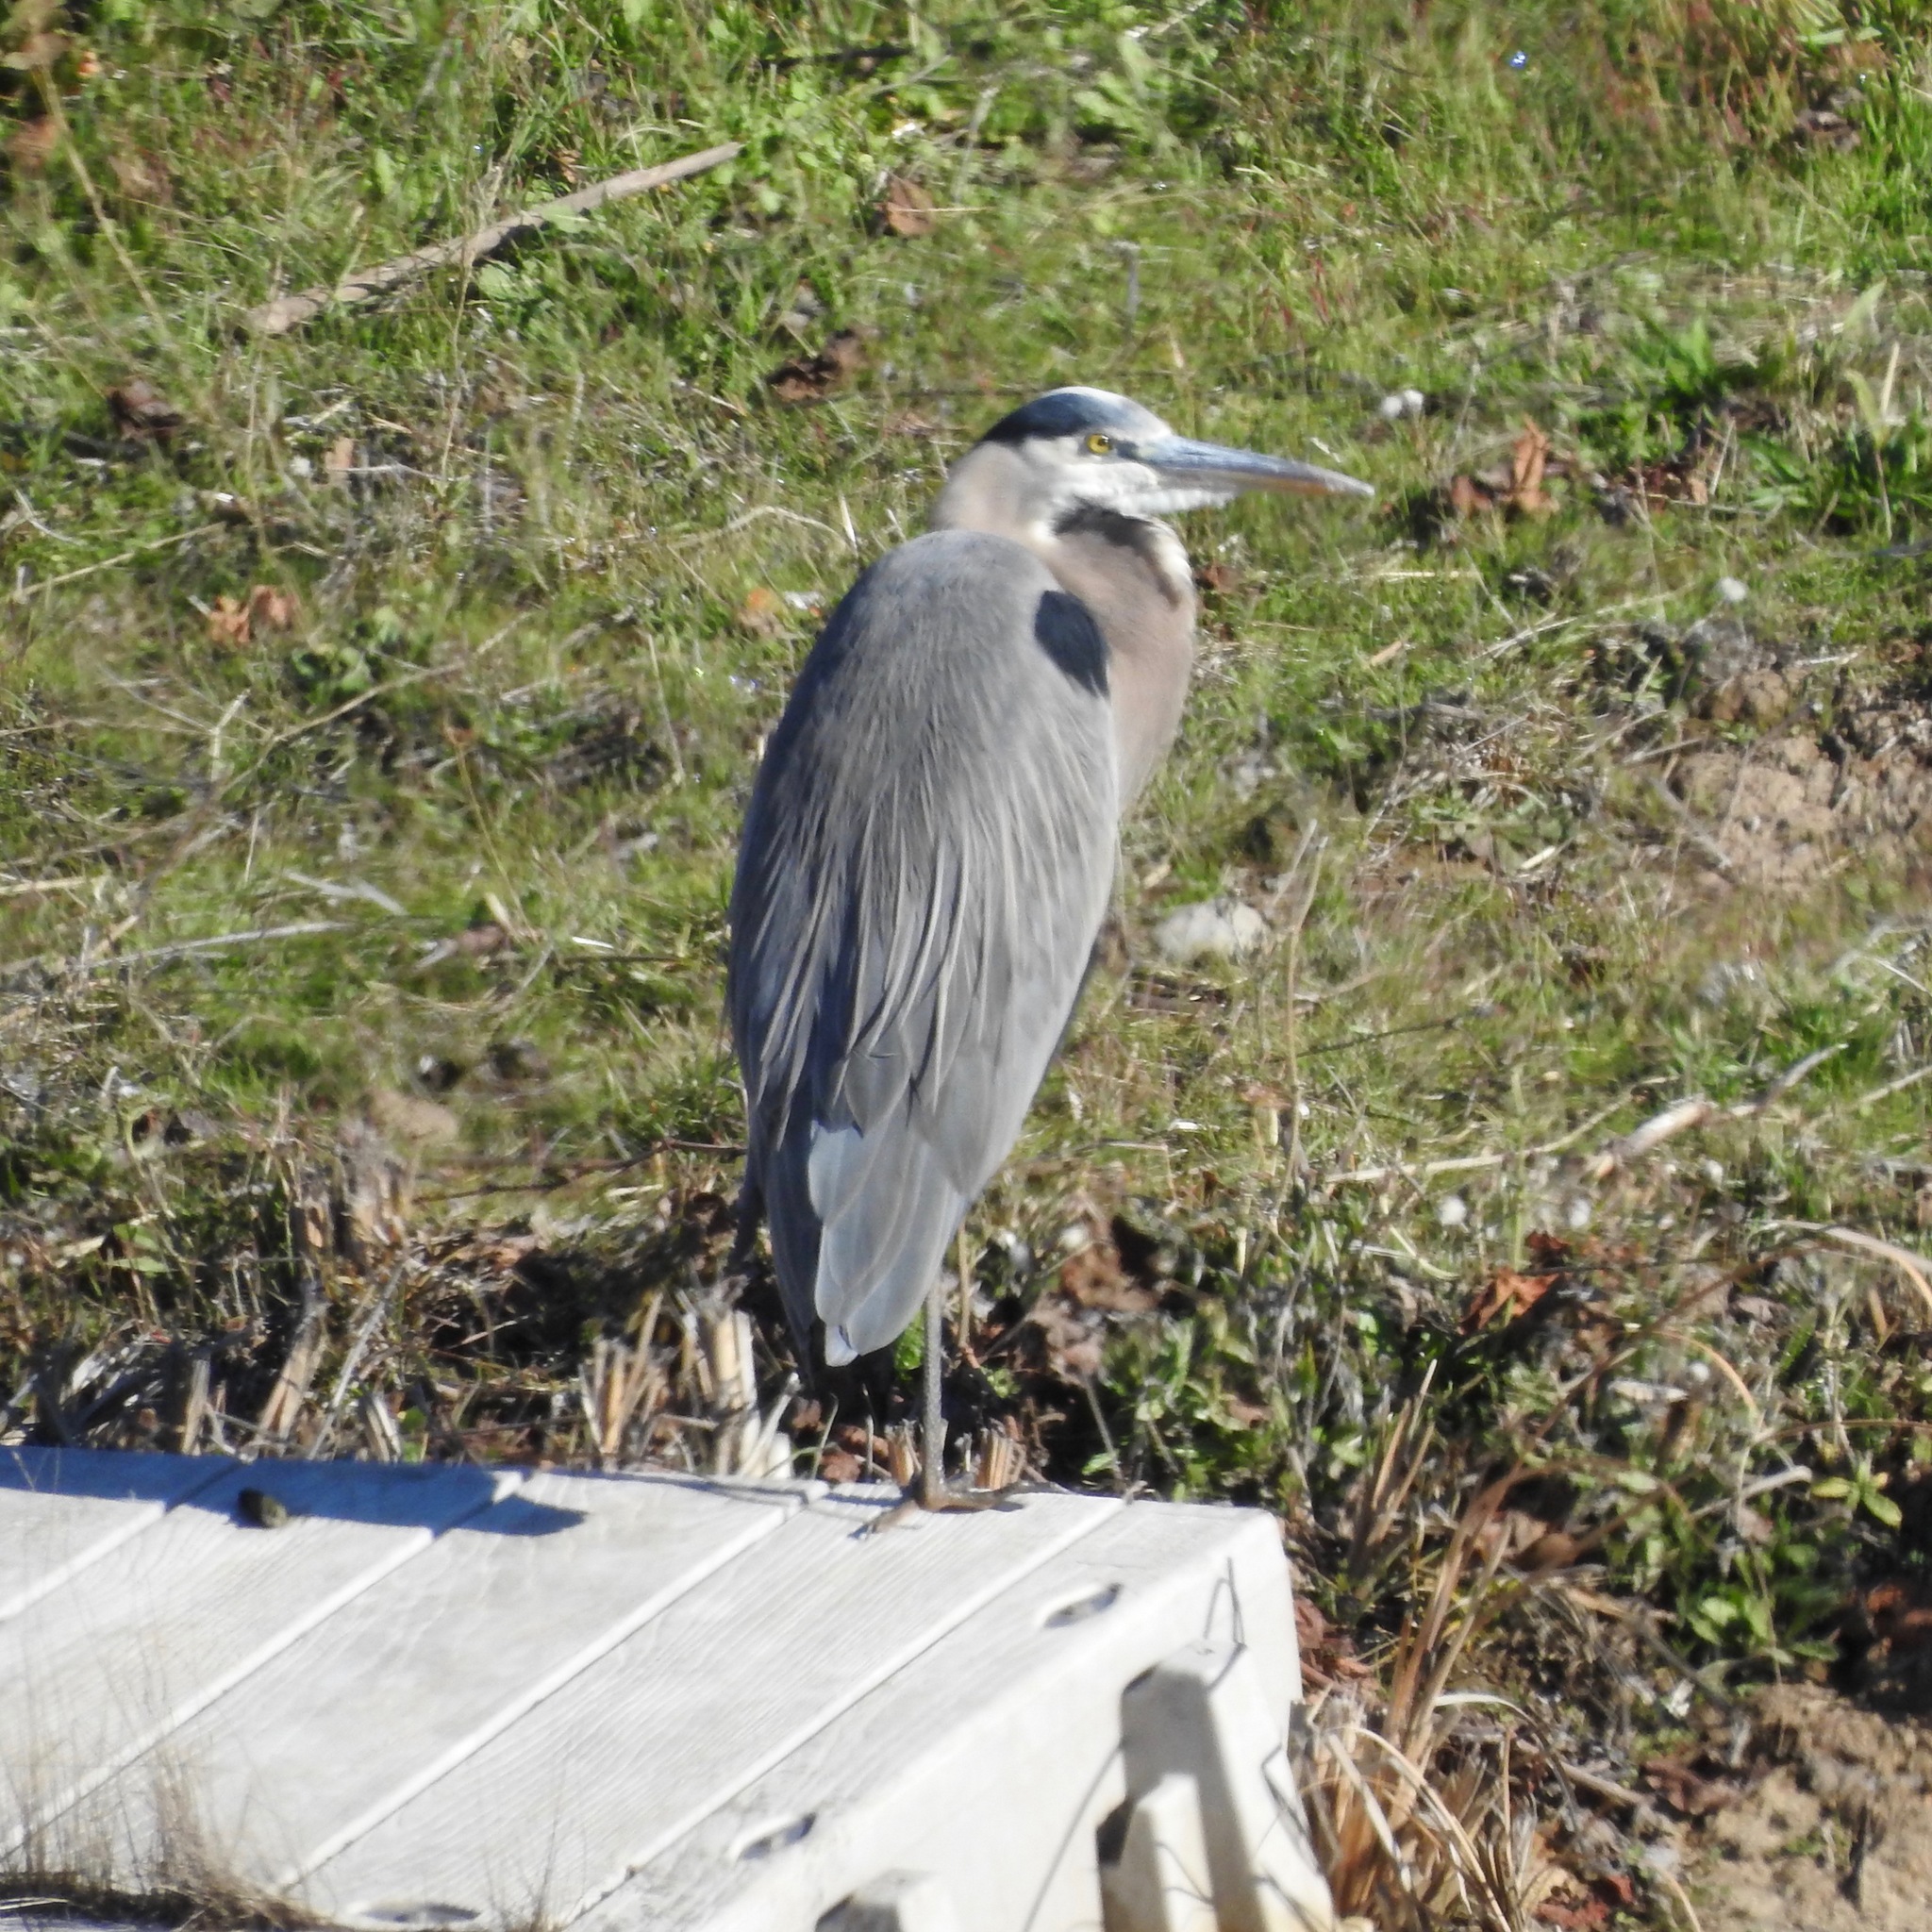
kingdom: Animalia
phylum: Chordata
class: Aves
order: Pelecaniformes
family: Ardeidae
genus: Ardea
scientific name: Ardea herodias
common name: Great blue heron
